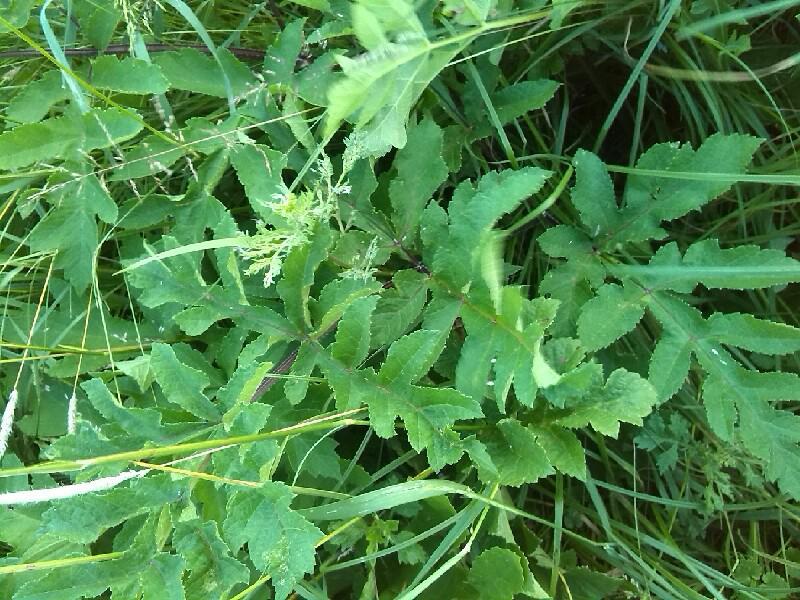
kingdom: Plantae
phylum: Tracheophyta
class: Magnoliopsida
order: Apiales
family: Apiaceae
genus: Heracleum
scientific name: Heracleum sphondylium
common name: Hogweed
